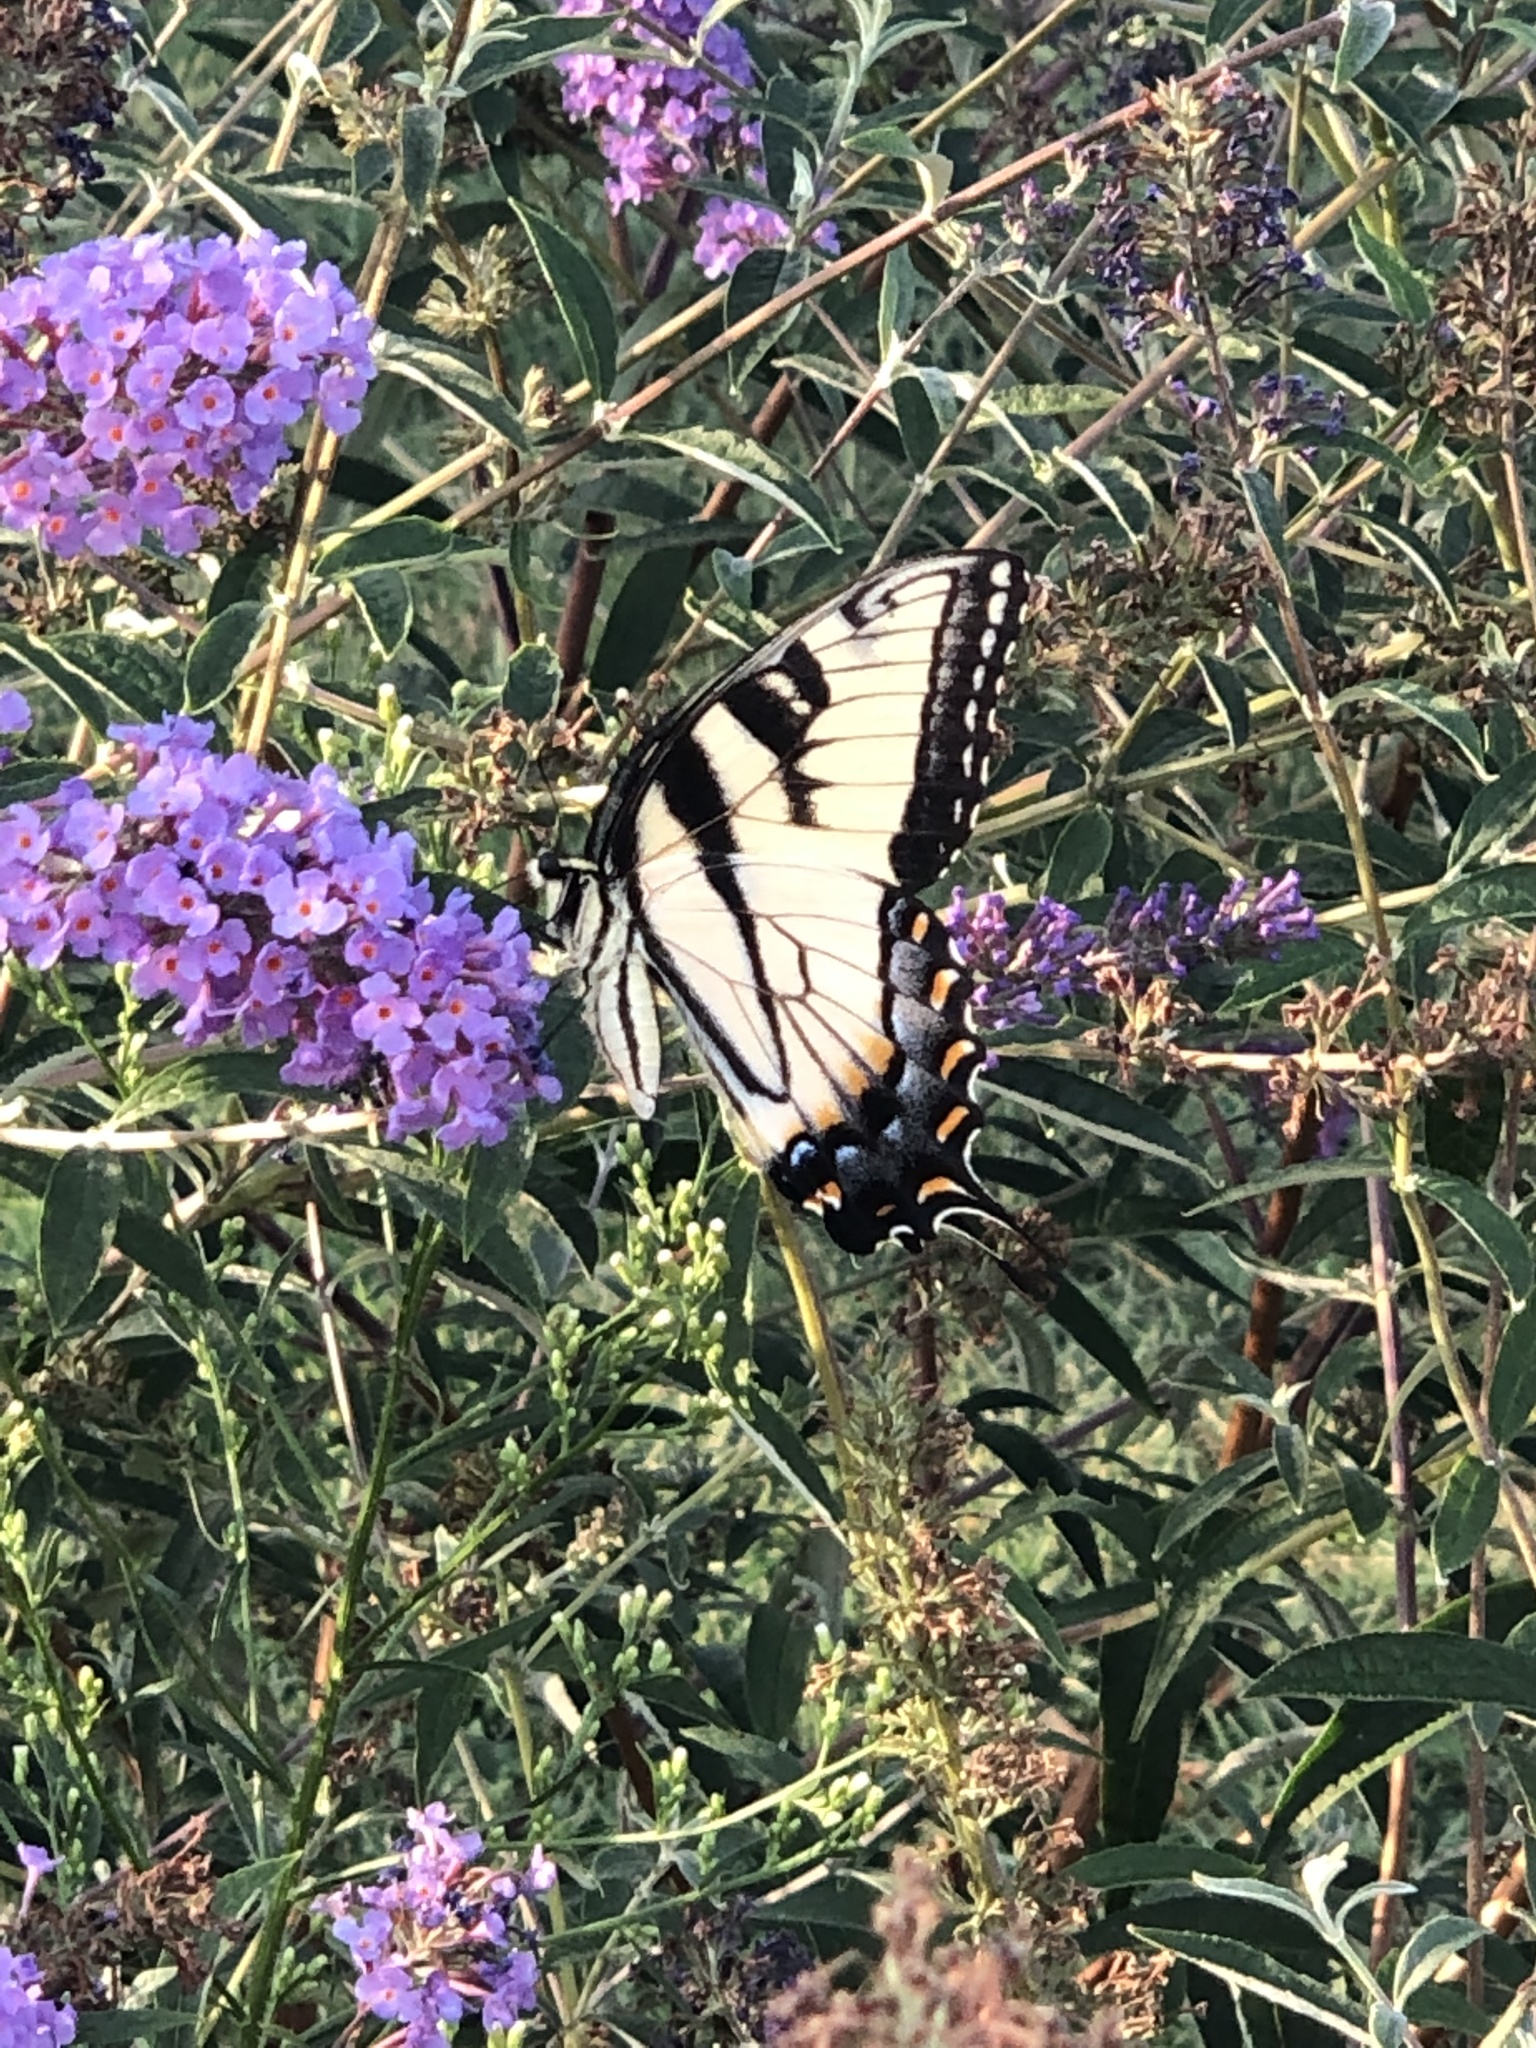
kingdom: Animalia
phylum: Arthropoda
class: Insecta
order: Lepidoptera
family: Papilionidae
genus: Papilio
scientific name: Papilio glaucus
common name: Tiger swallowtail
